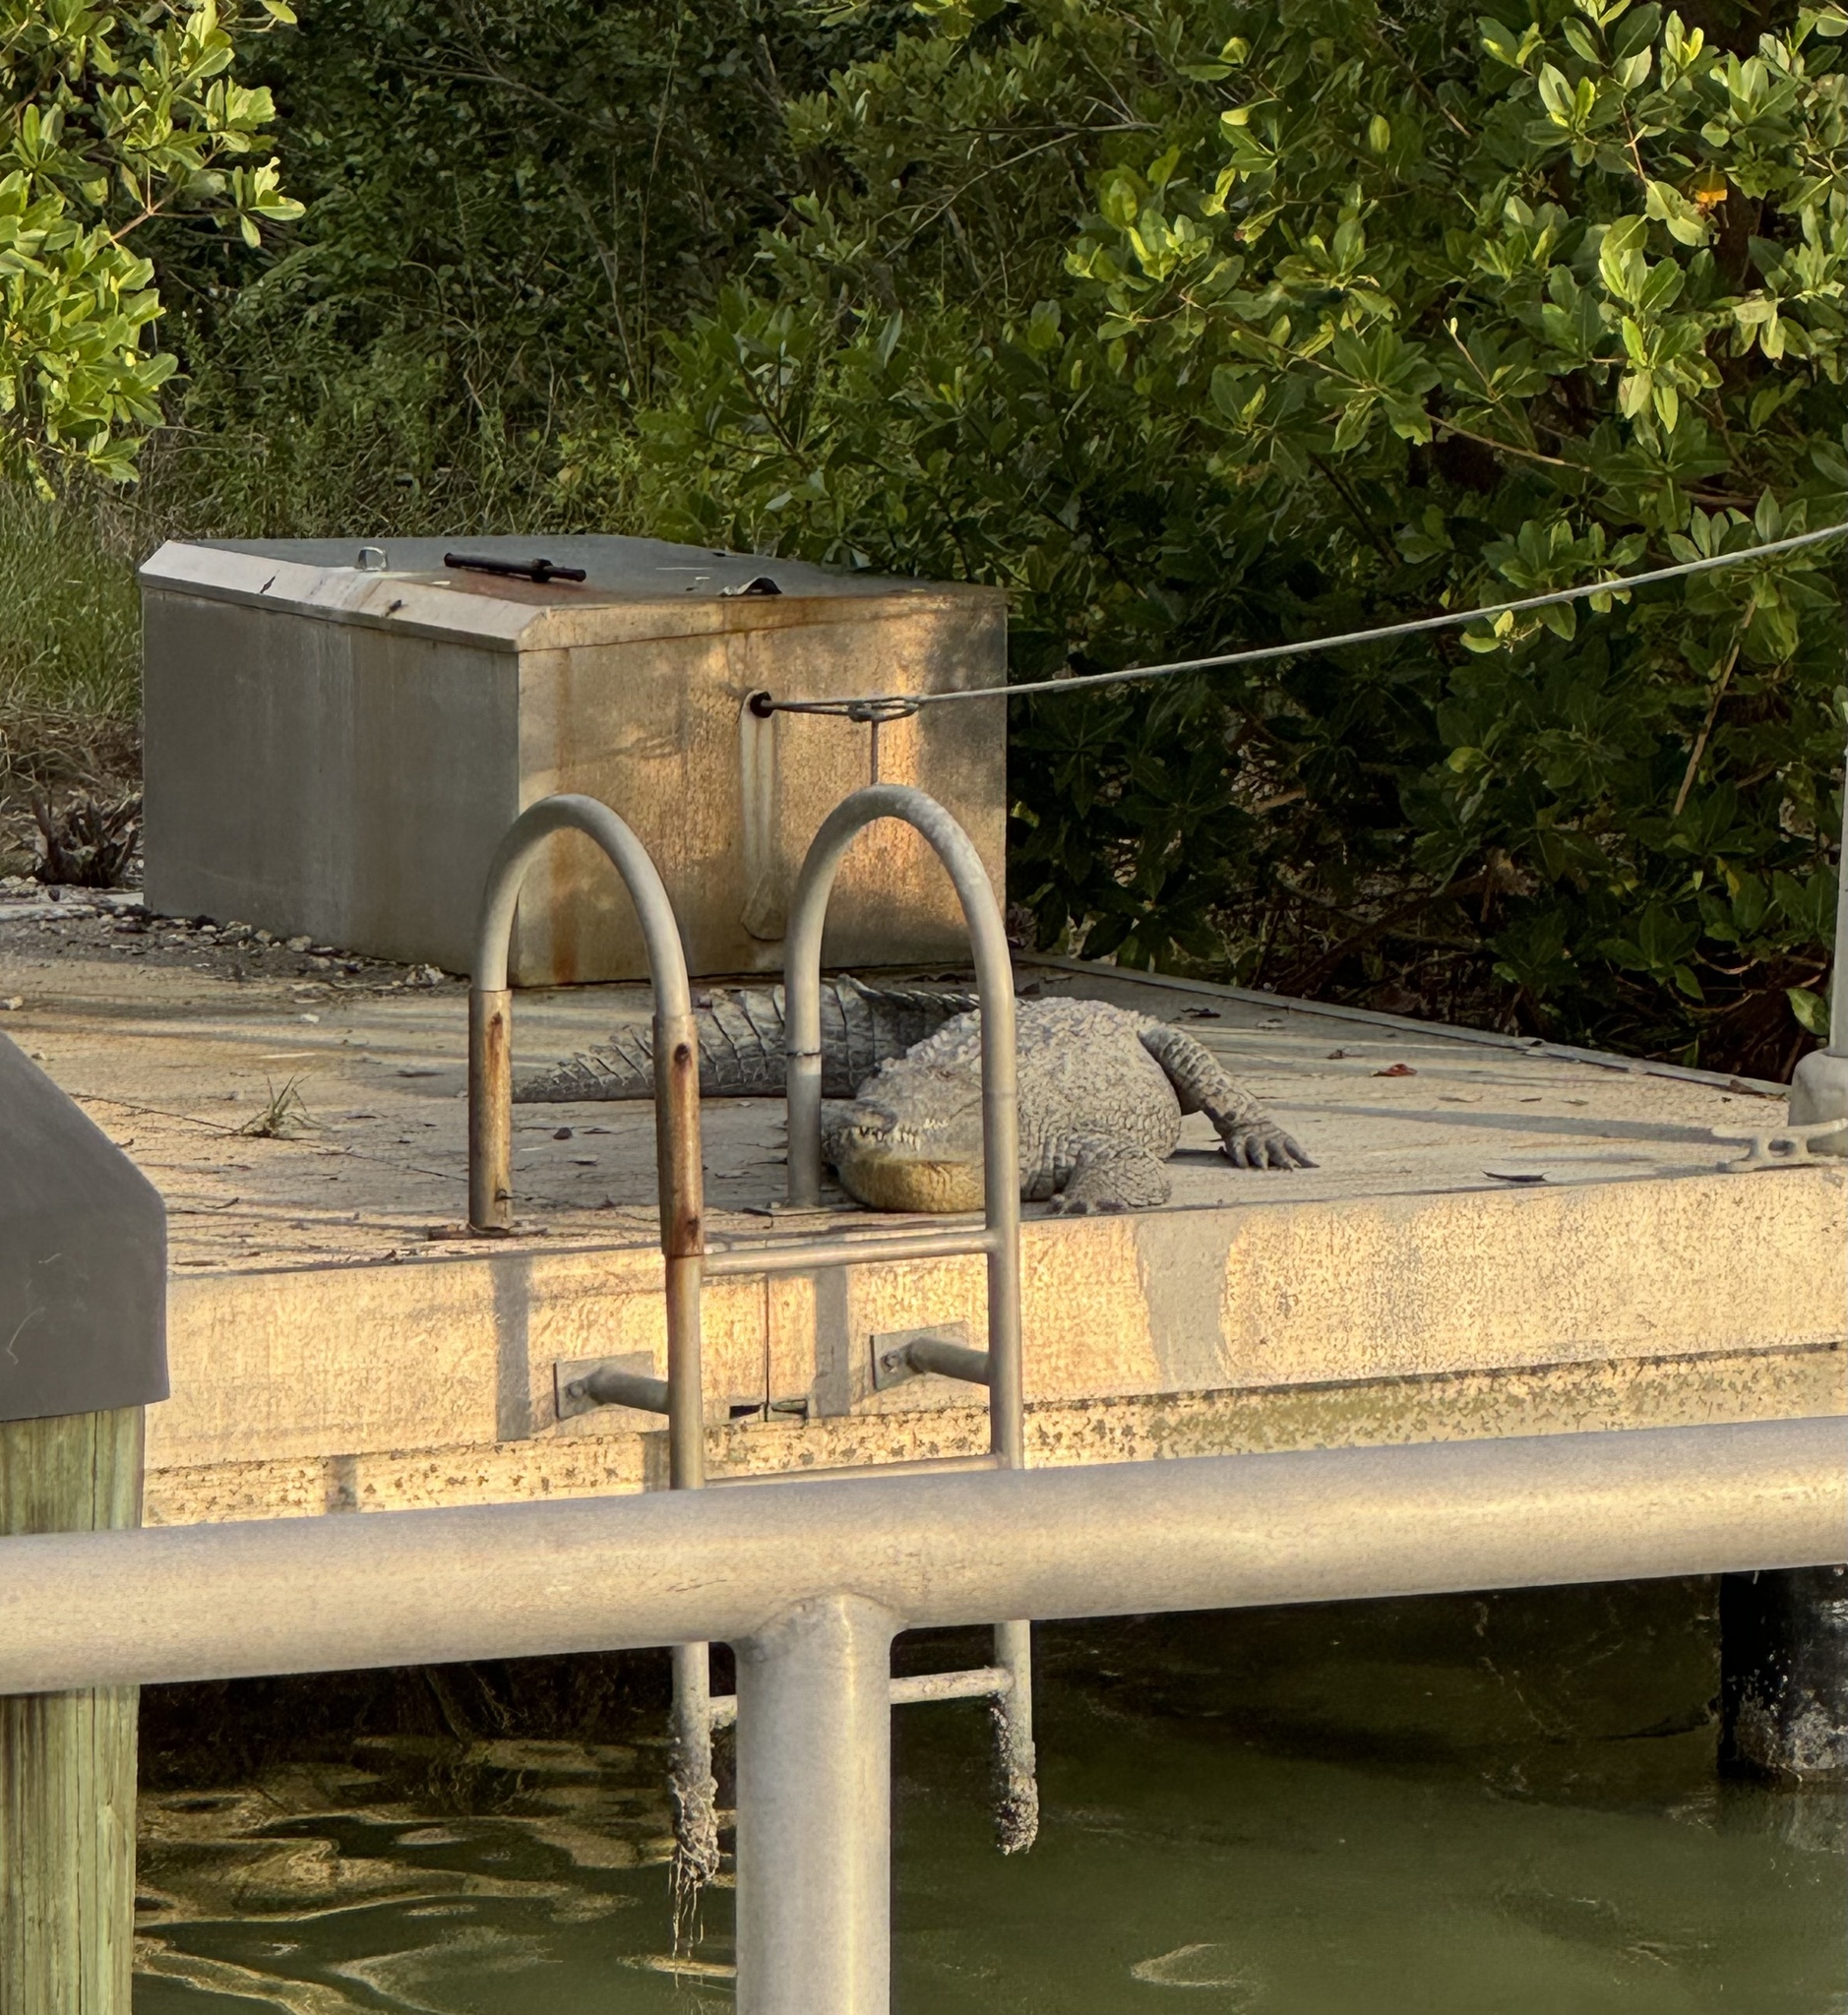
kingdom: Animalia
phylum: Chordata
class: Crocodylia
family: Crocodylidae
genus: Crocodylus
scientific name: Crocodylus acutus
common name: American crocodile
